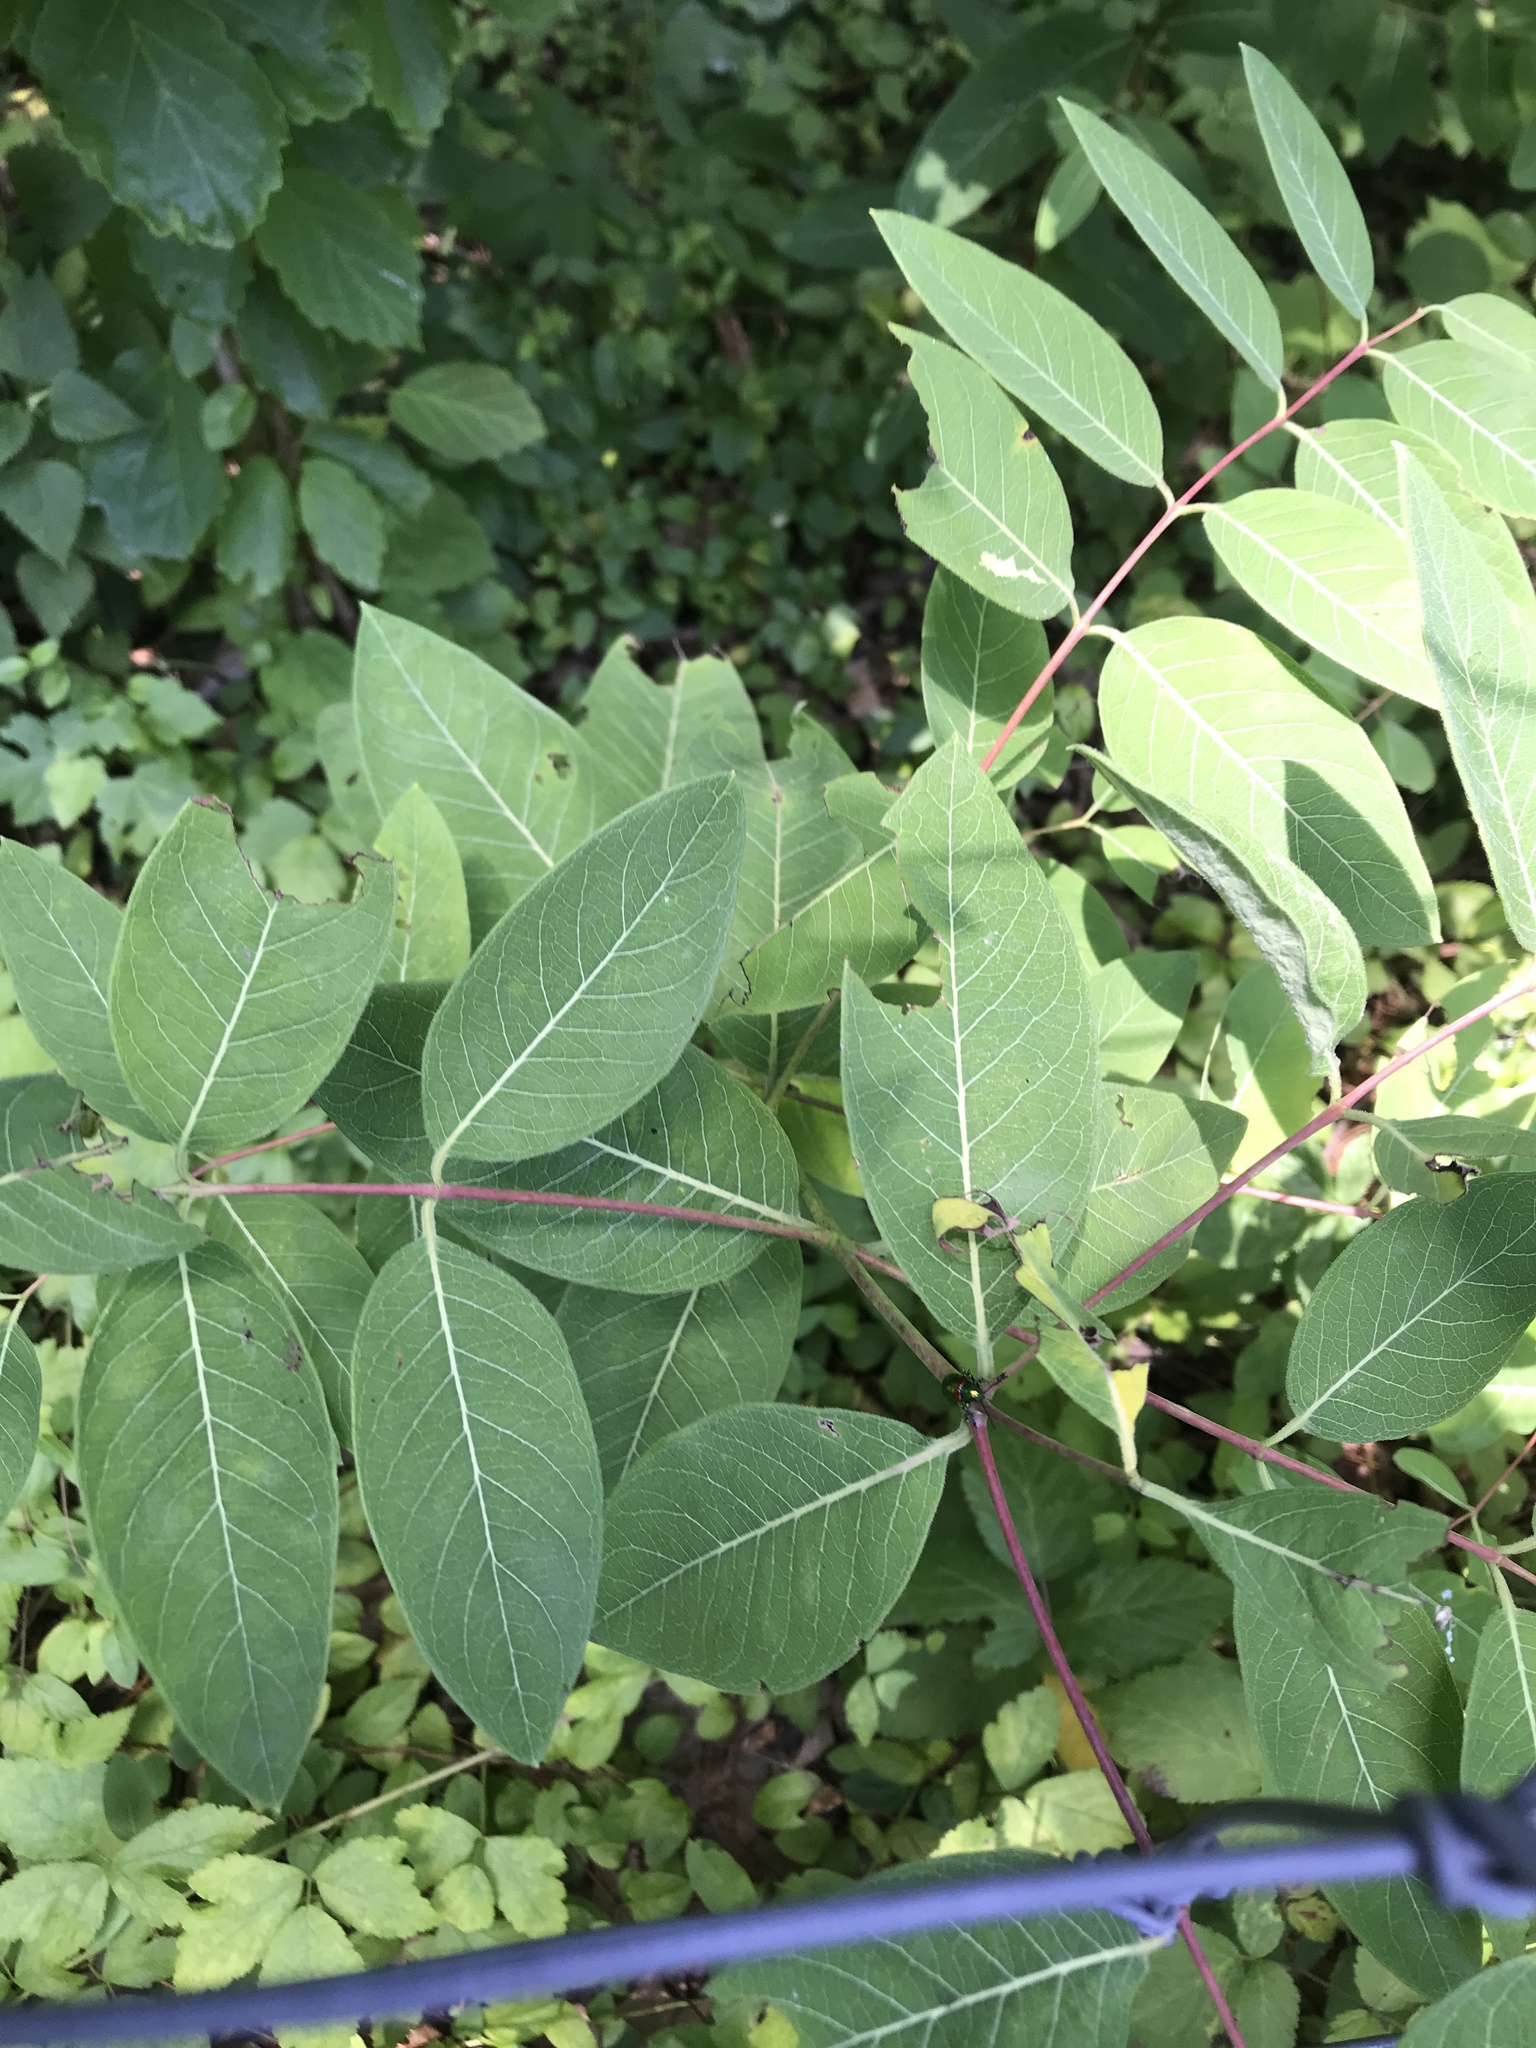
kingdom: Plantae
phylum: Tracheophyta
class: Magnoliopsida
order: Gentianales
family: Apocynaceae
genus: Apocynum
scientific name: Apocynum cannabinum
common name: Hemp dogbane
